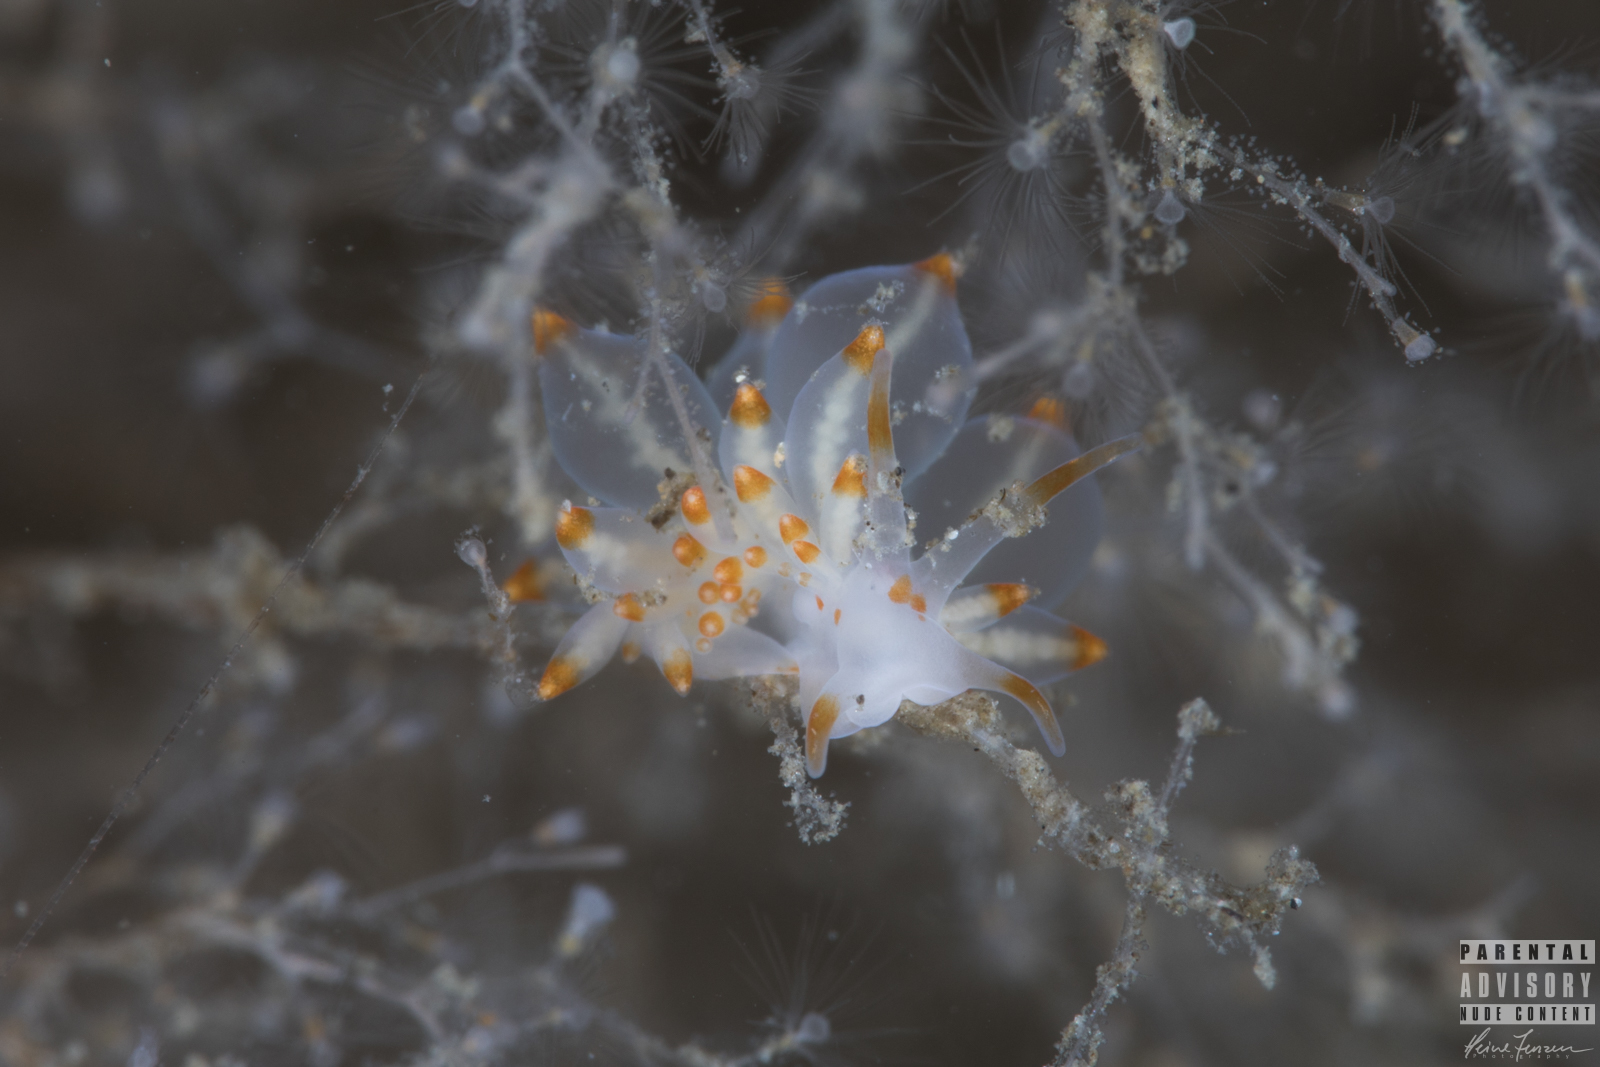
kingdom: Animalia
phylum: Mollusca
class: Gastropoda
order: Nudibranchia
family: Eubranchidae
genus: Amphorina
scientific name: Amphorina farrani
